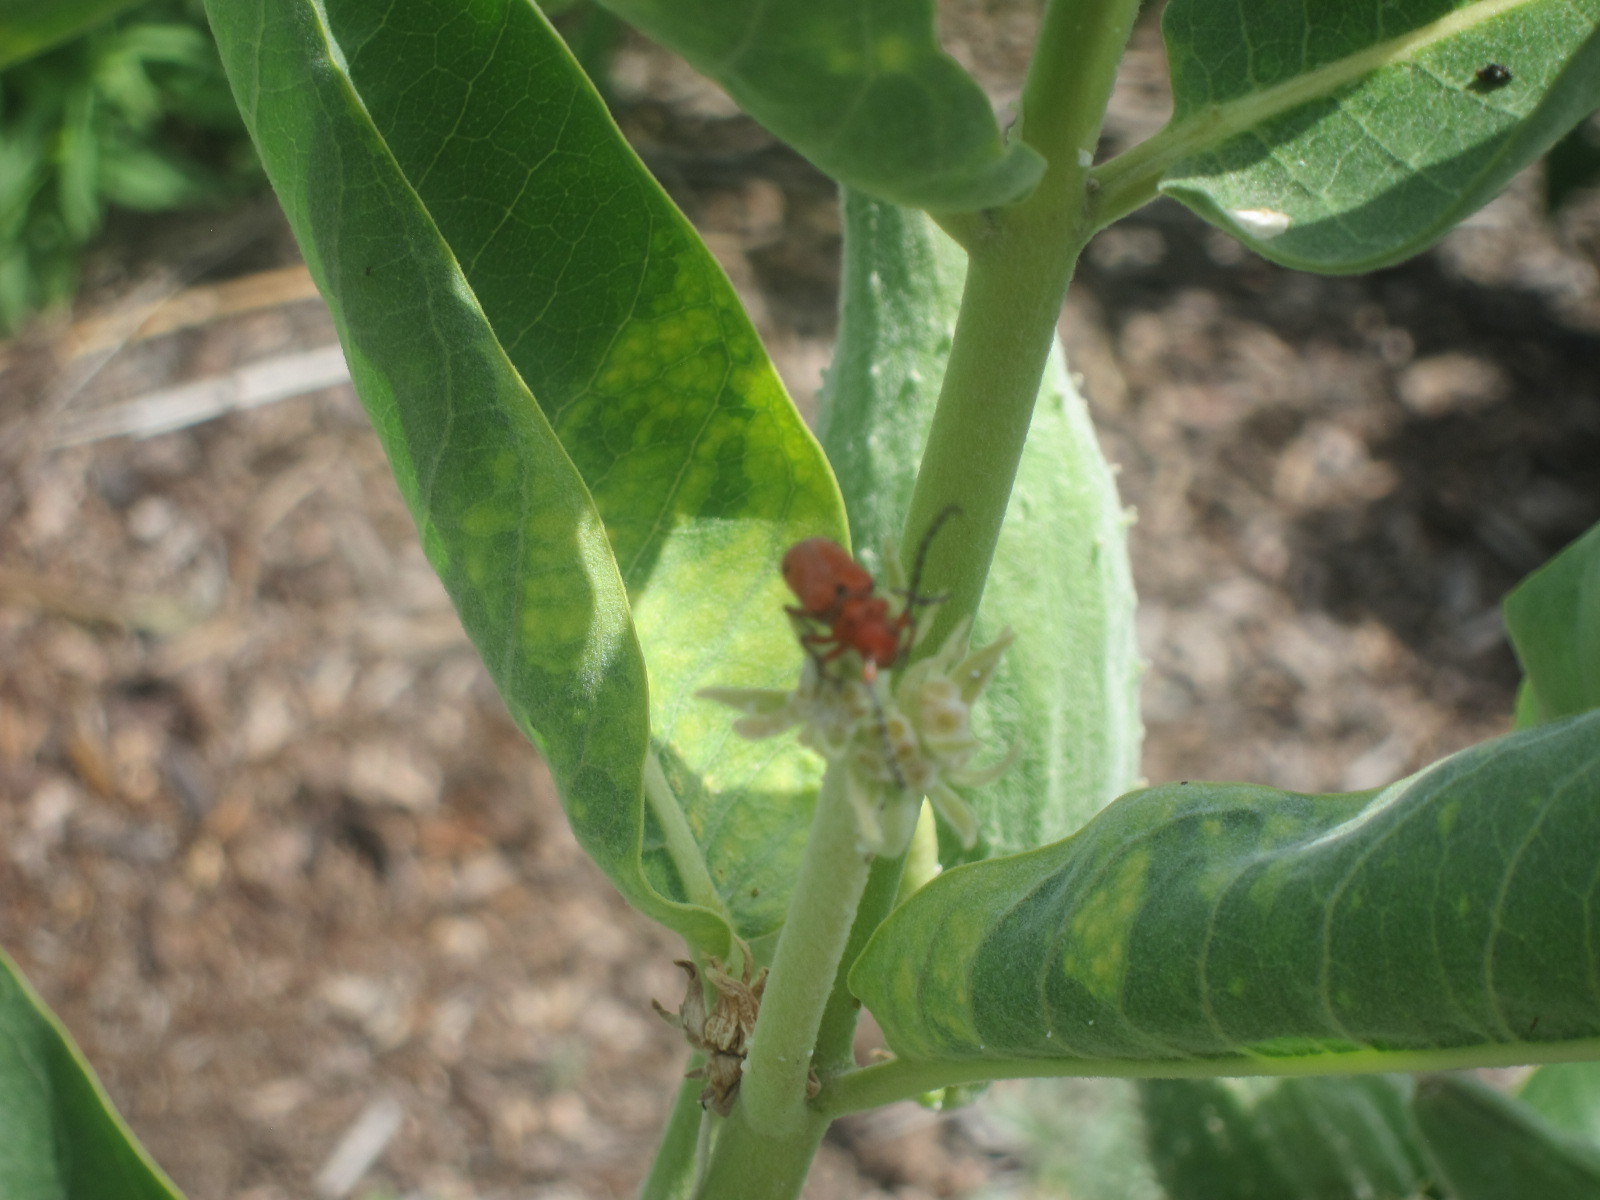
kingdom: Animalia
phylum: Arthropoda
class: Insecta
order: Coleoptera
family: Cerambycidae
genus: Tetraopes
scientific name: Tetraopes femoratus
